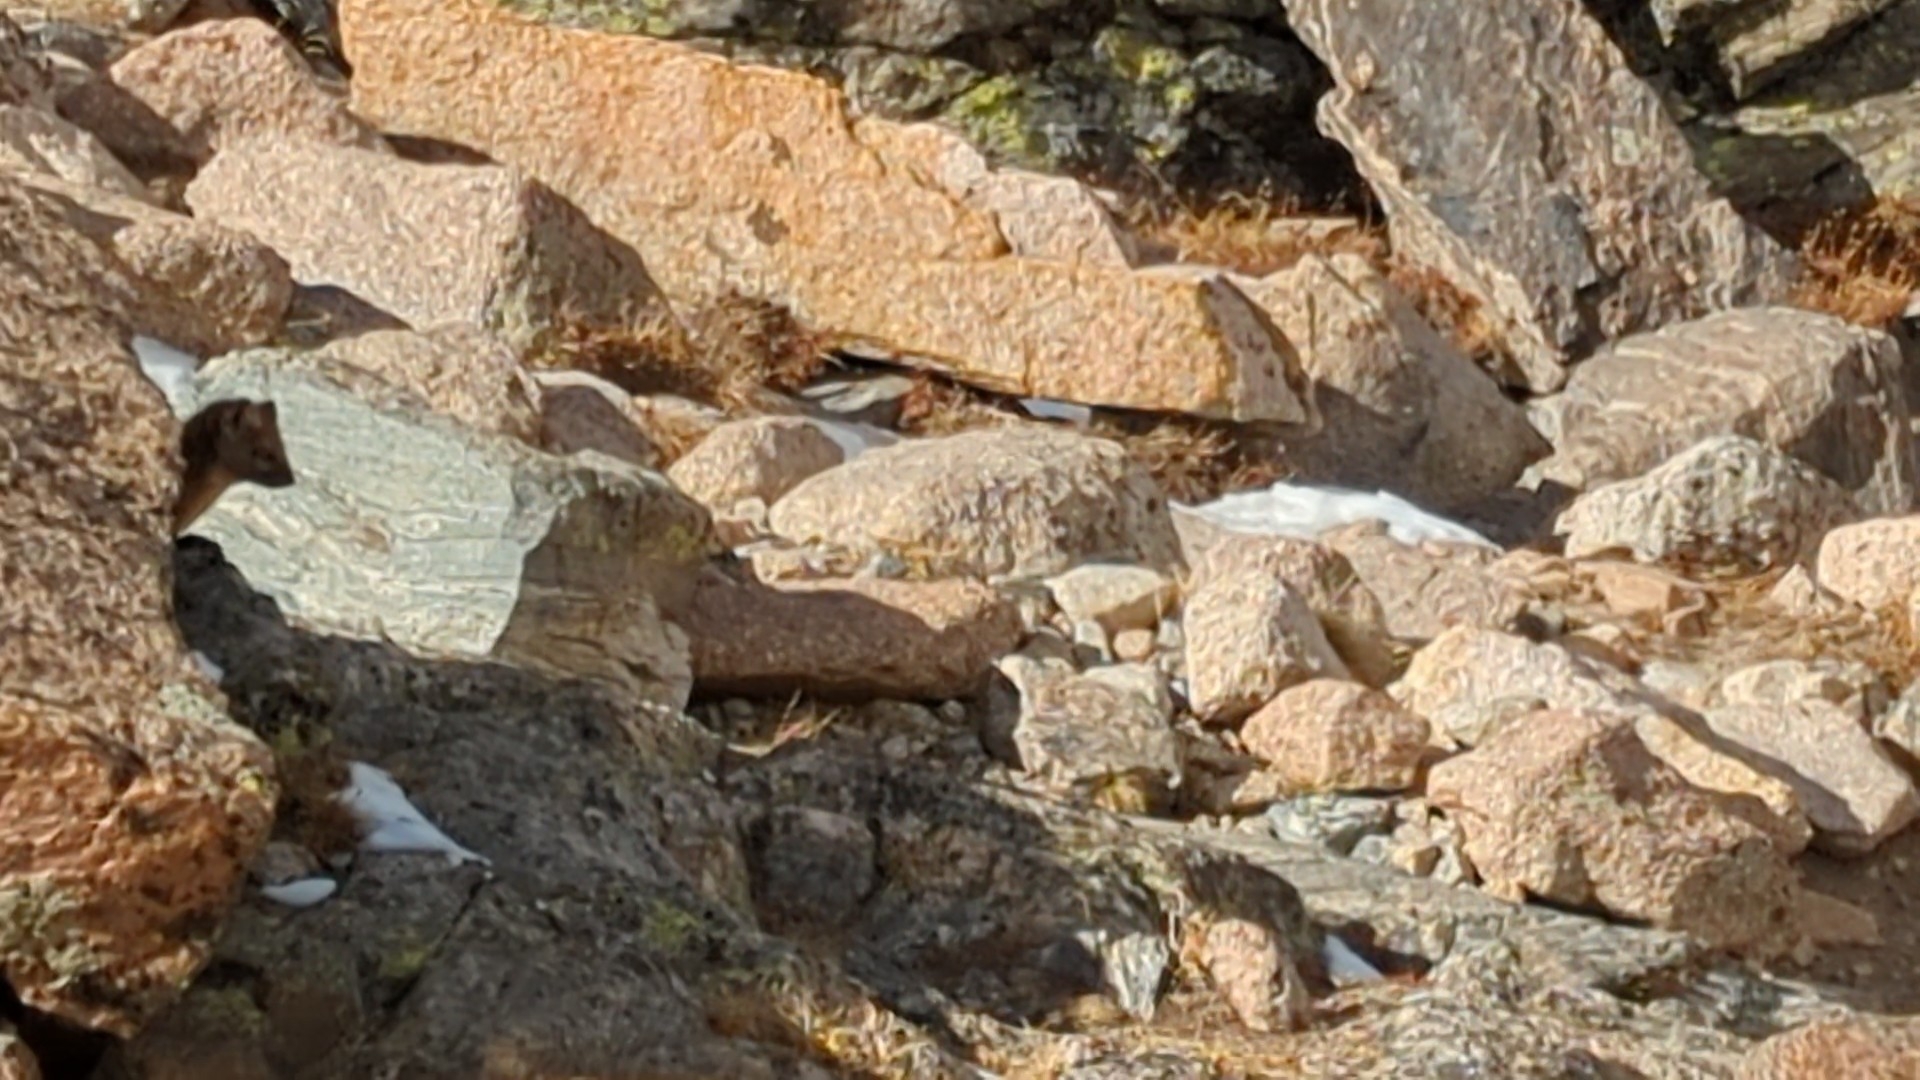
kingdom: Animalia
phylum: Chordata
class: Mammalia
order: Carnivora
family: Mustelidae
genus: Martes
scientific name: Martes caurina
